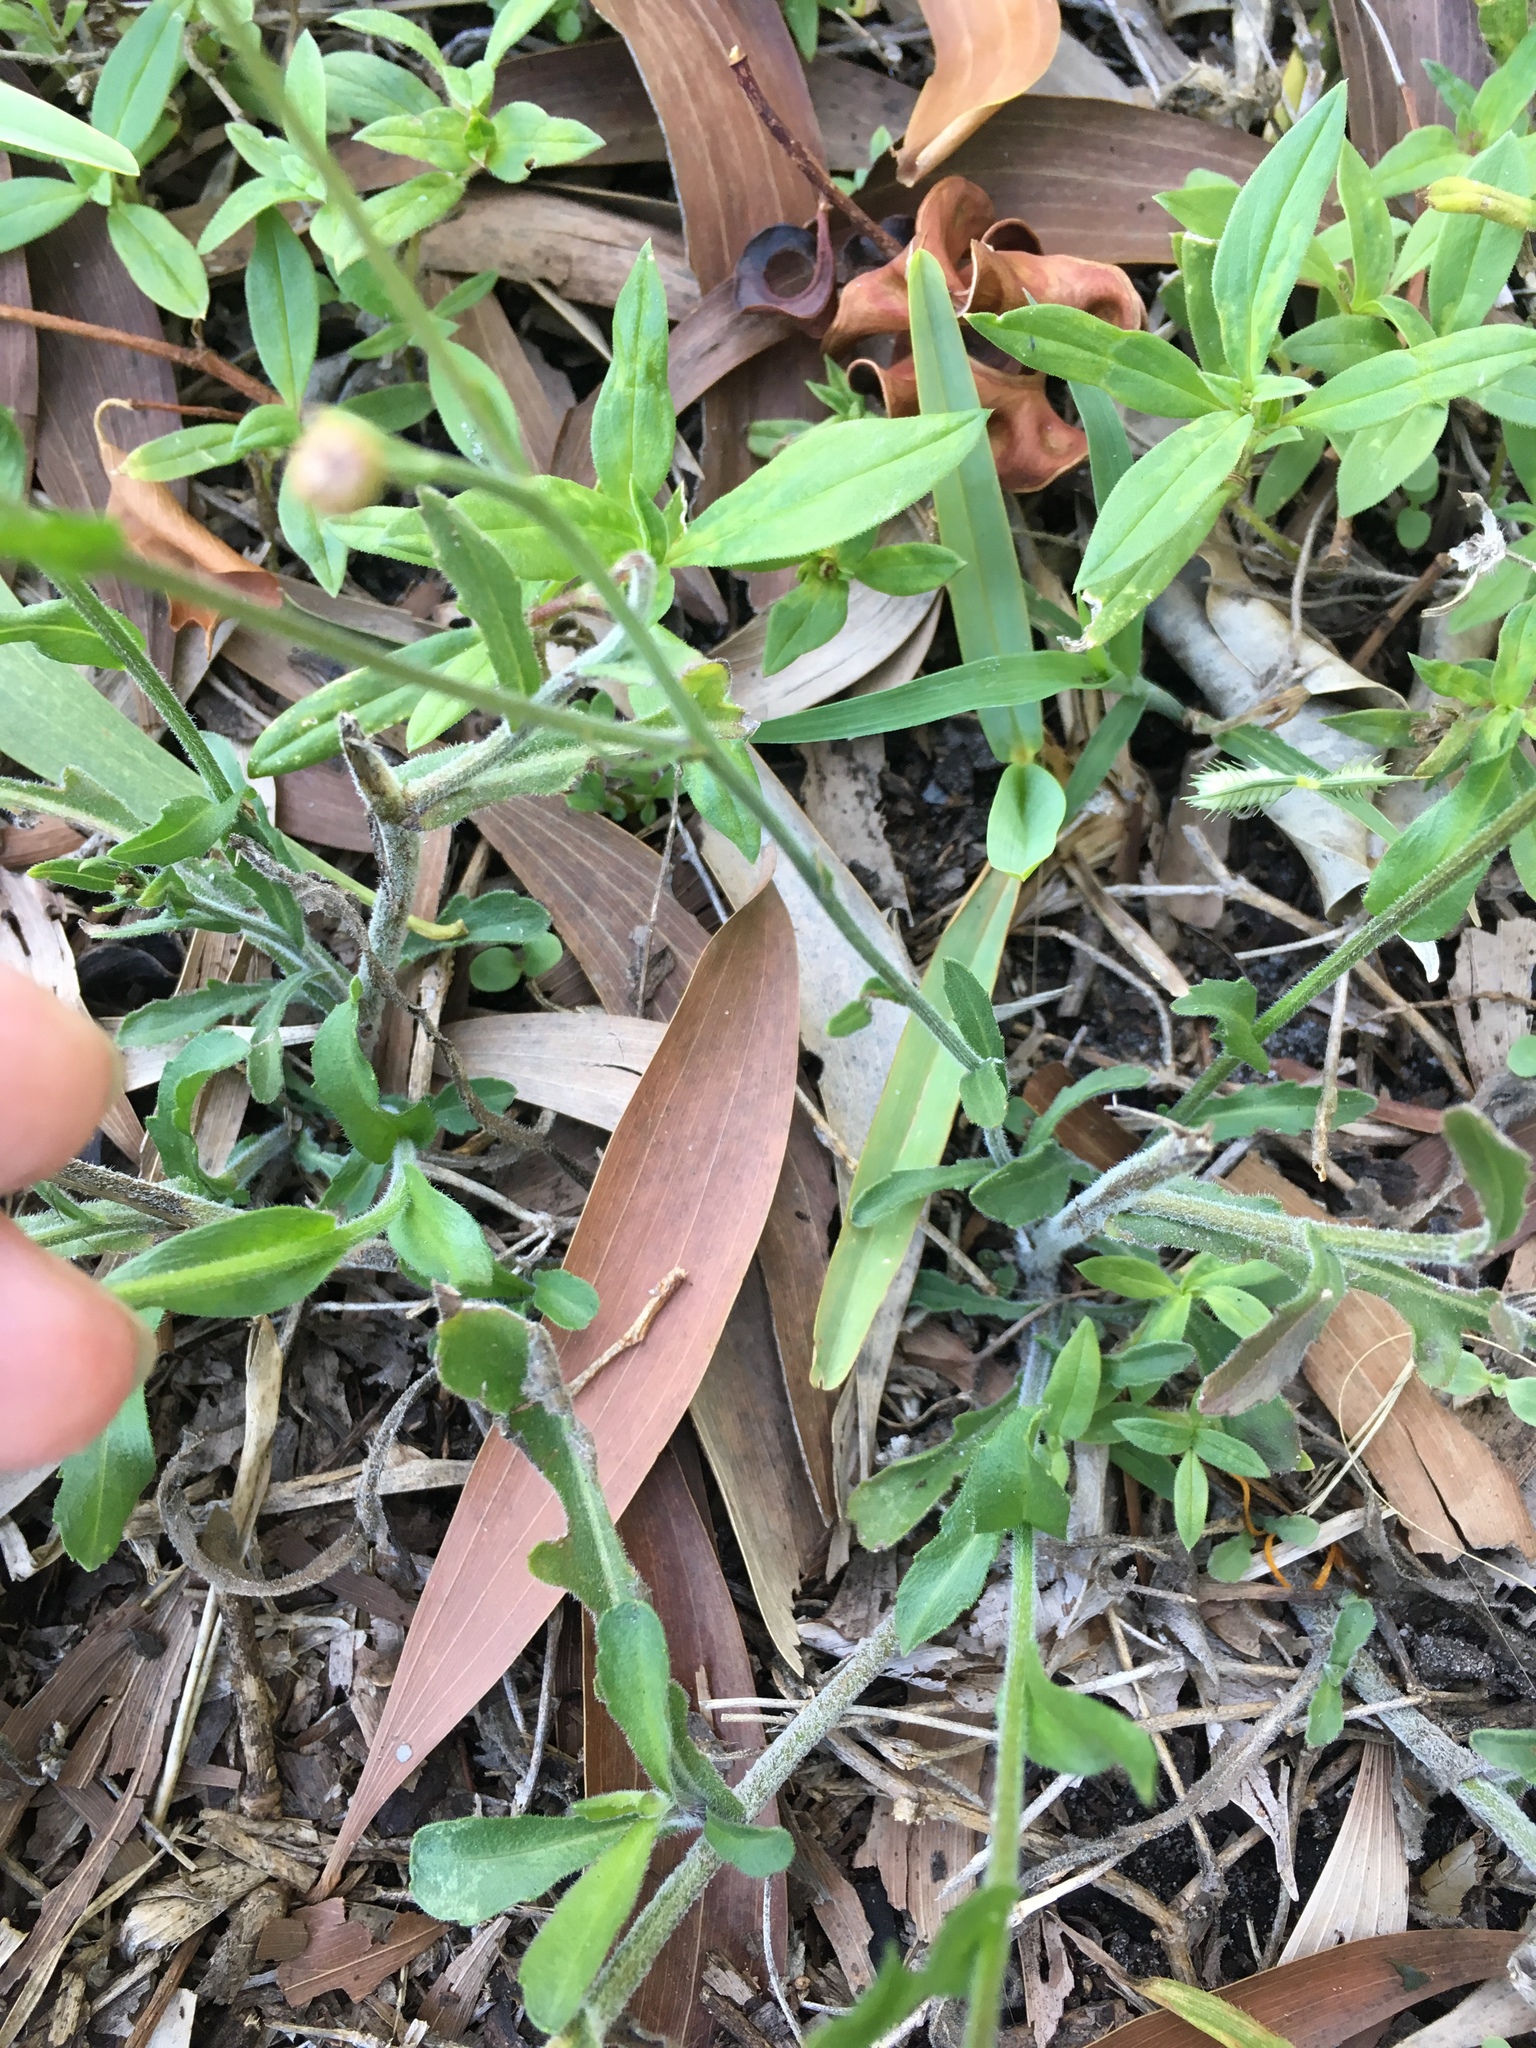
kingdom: Plantae
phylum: Tracheophyta
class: Magnoliopsida
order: Asterales
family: Asteraceae
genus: Erigeron
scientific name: Erigeron quercifolius
